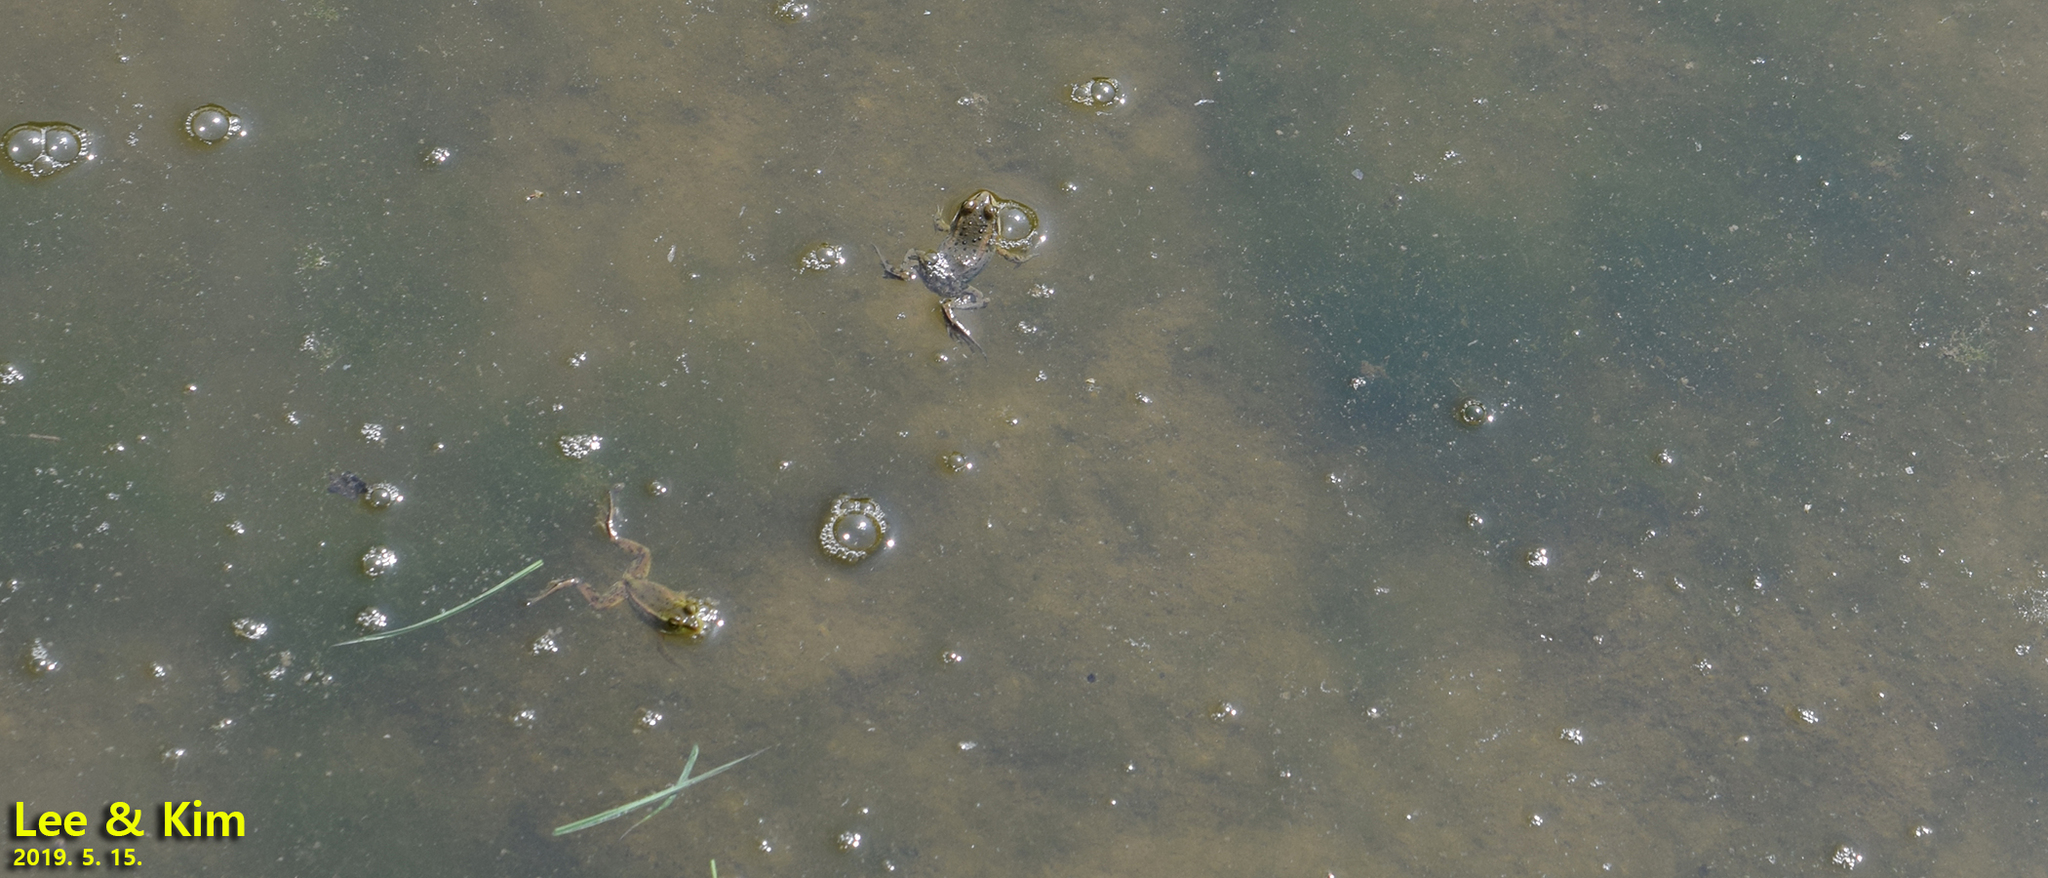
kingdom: Animalia
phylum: Chordata
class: Amphibia
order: Anura
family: Ranidae
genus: Pelophylax
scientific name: Pelophylax chosenicus
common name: Gold-spotted pond frog
